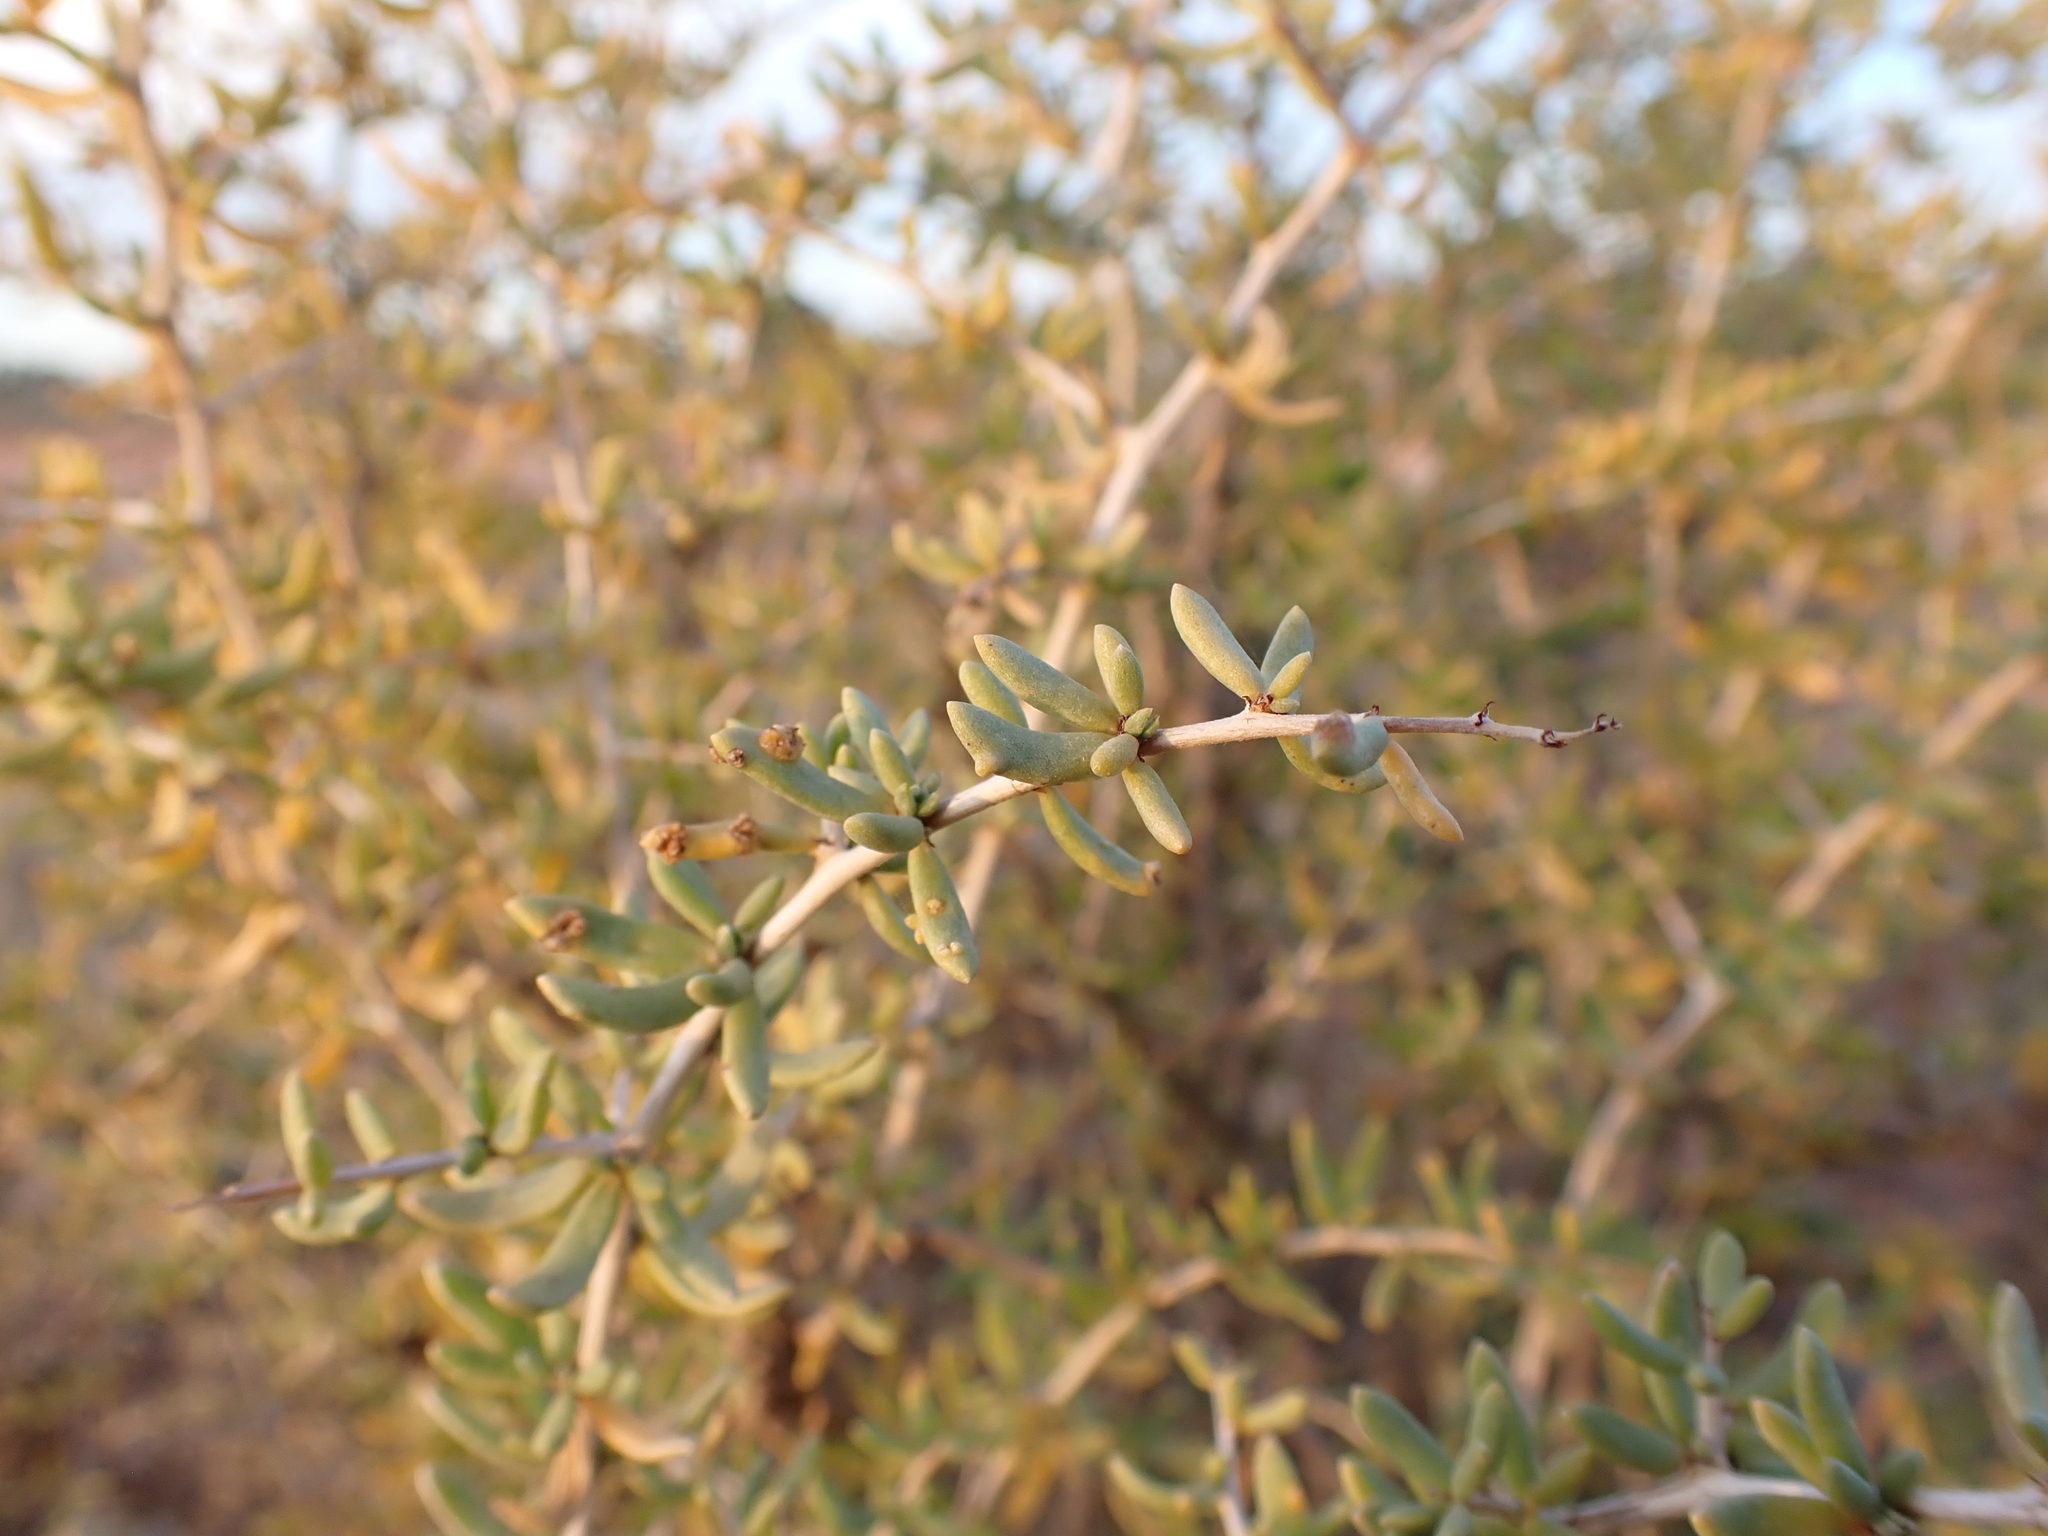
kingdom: Plantae
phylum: Tracheophyta
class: Magnoliopsida
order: Solanales
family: Solanaceae
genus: Lycium
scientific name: Lycium australe
